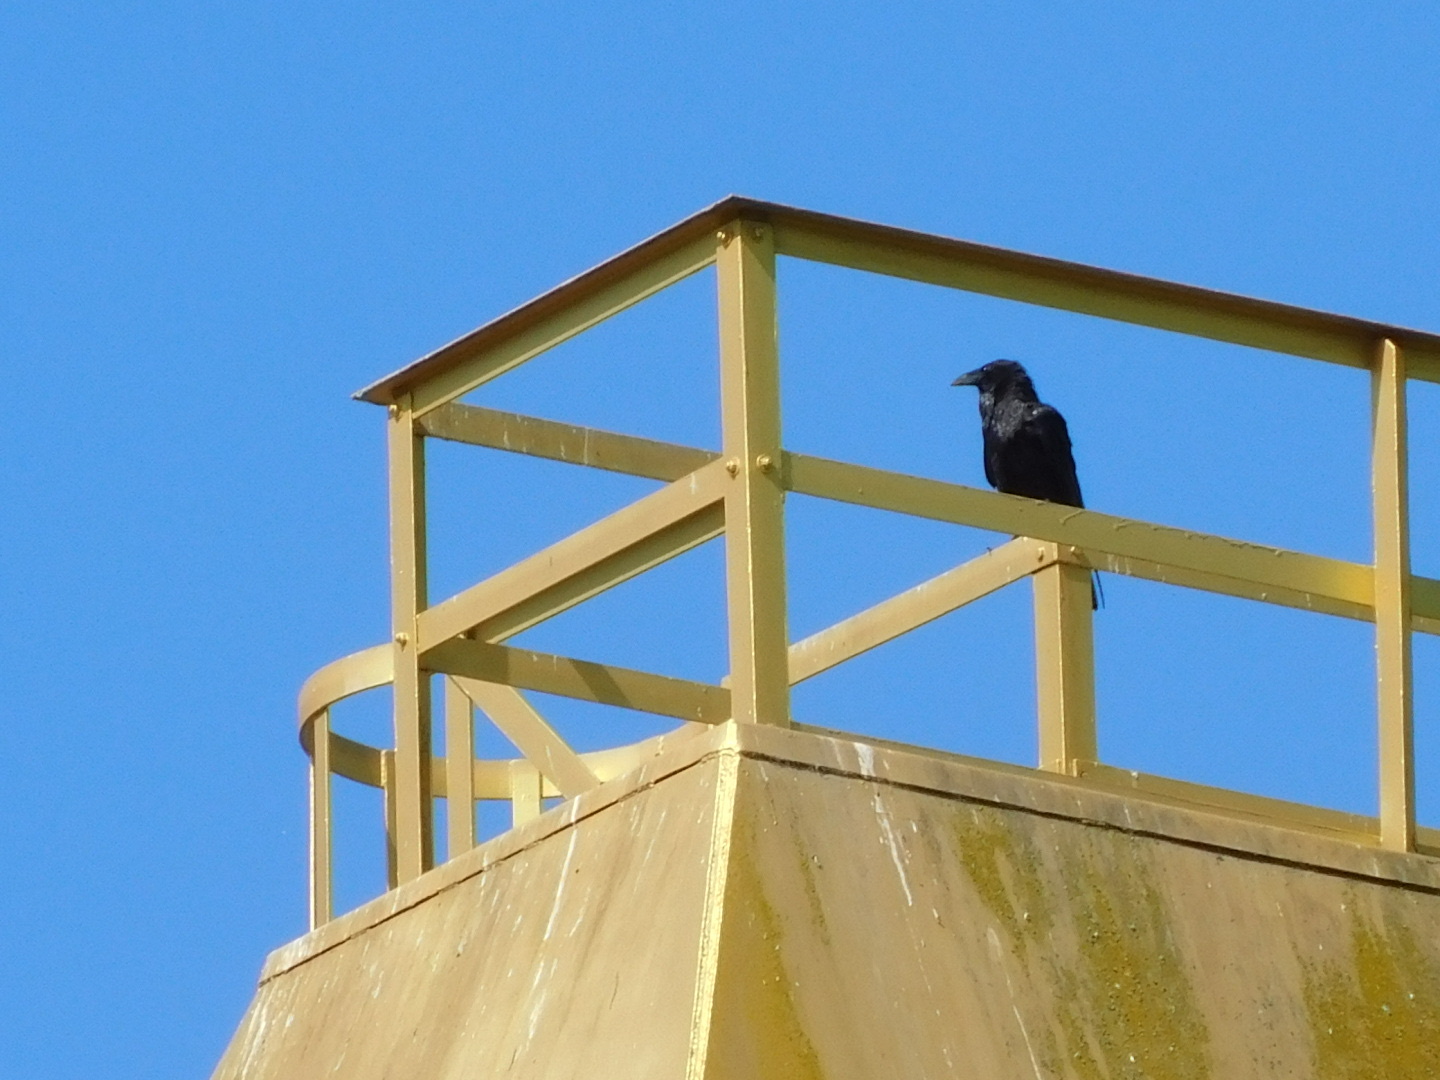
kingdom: Animalia
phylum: Chordata
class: Aves
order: Passeriformes
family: Corvidae
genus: Corvus
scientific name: Corvus corax
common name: Common raven
